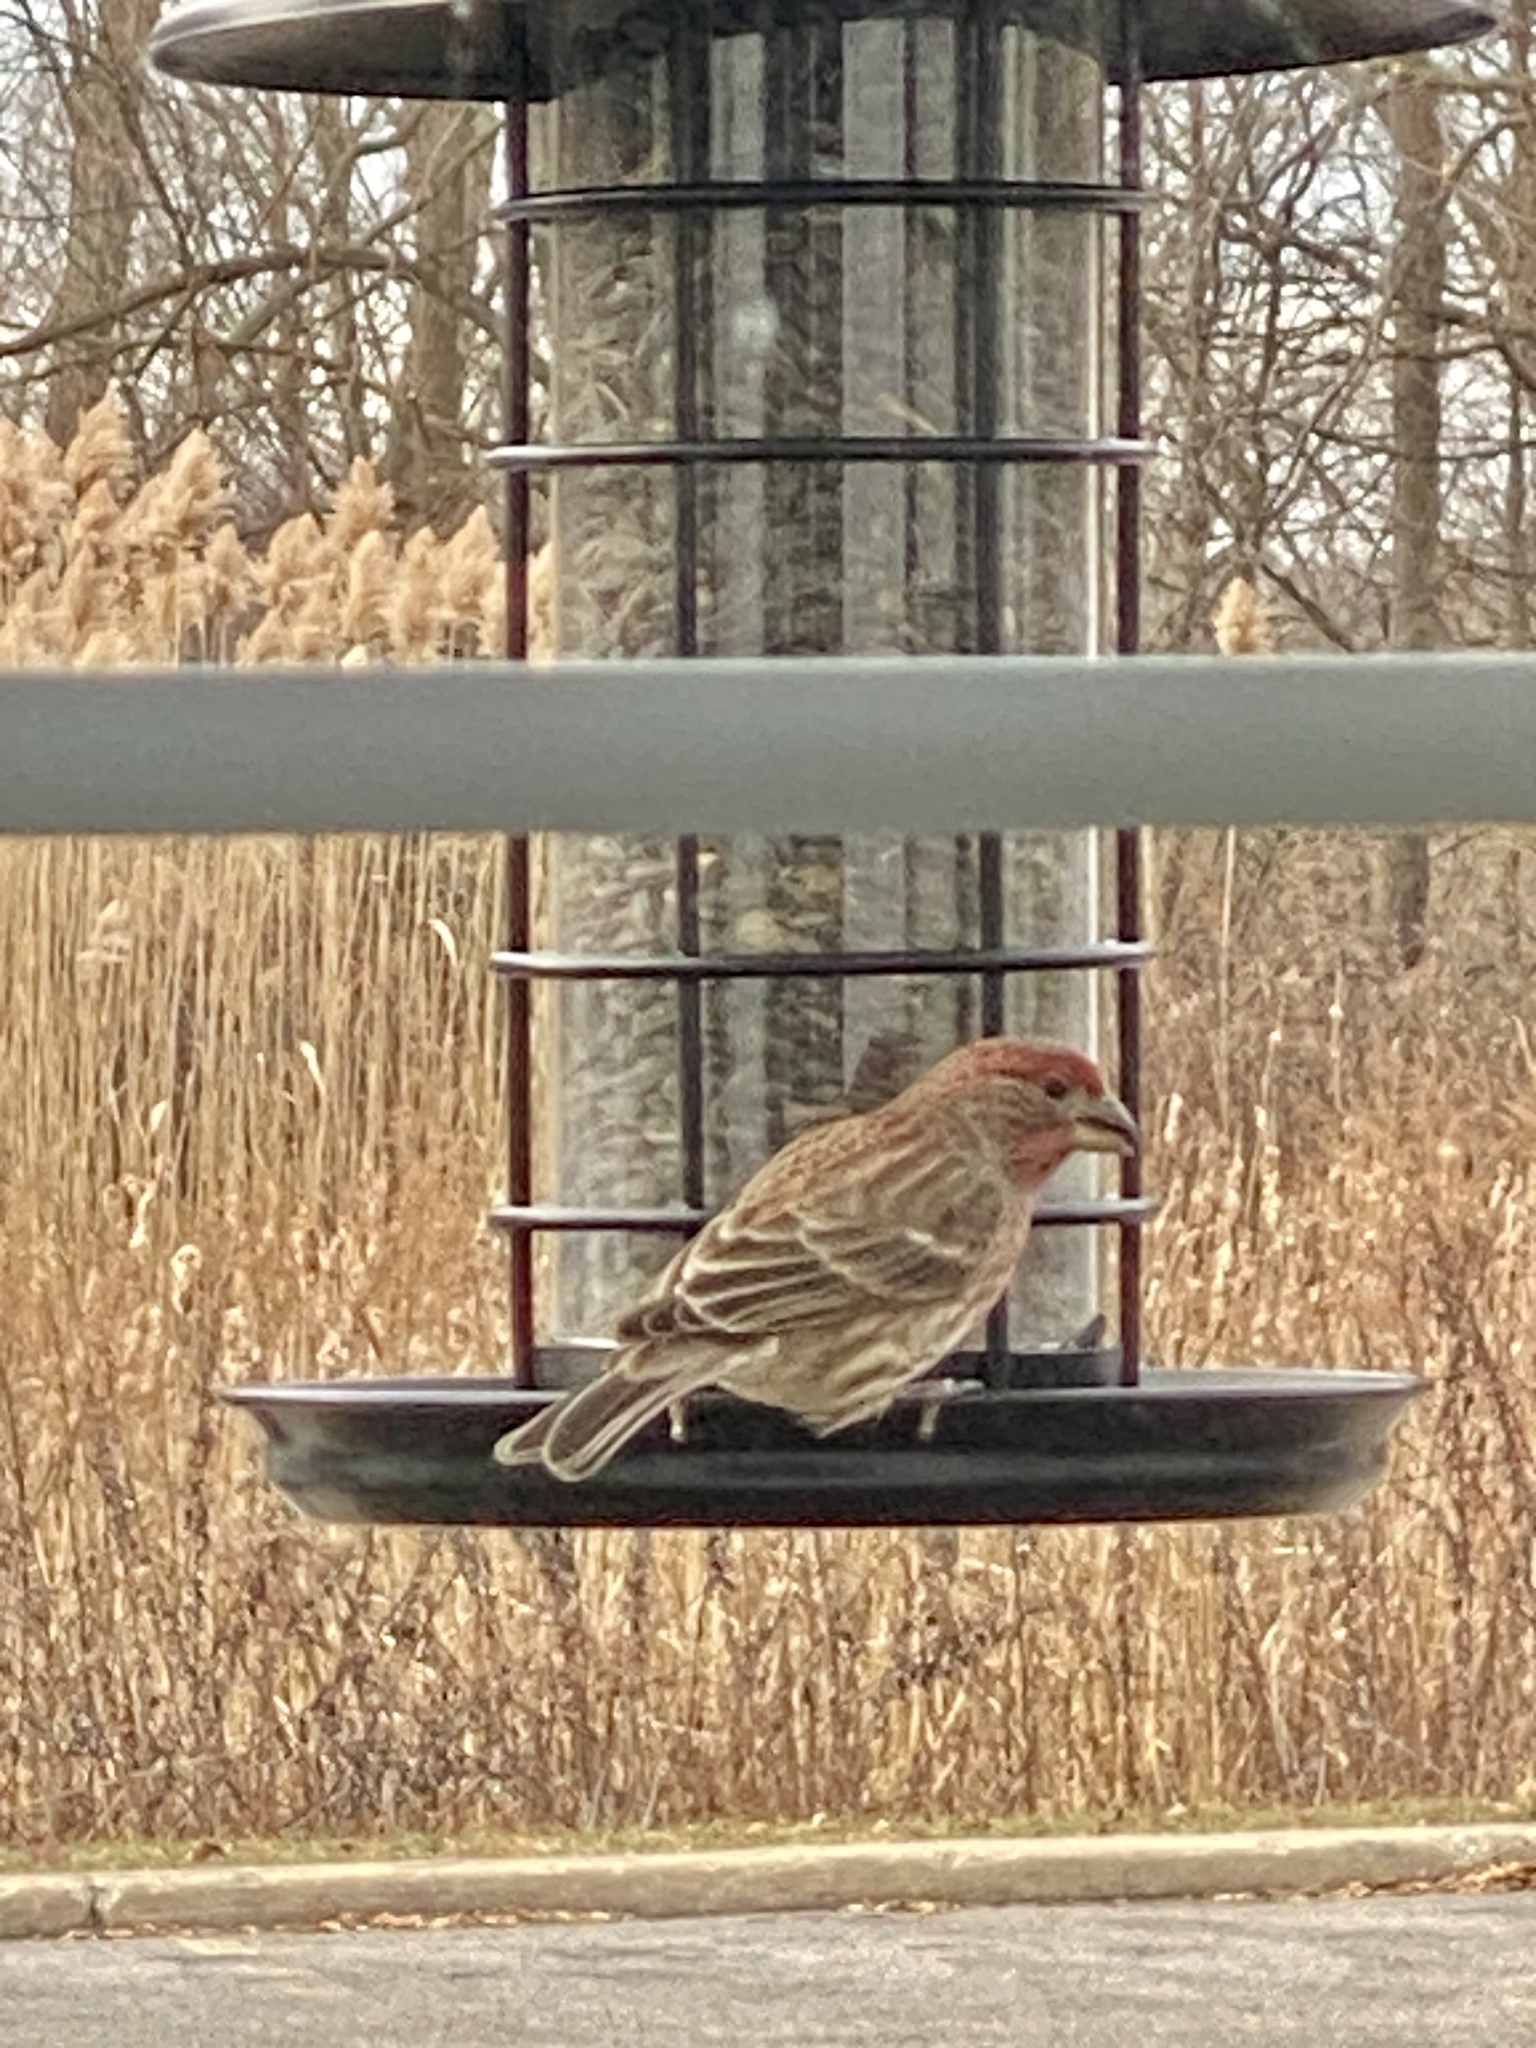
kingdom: Animalia
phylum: Chordata
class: Aves
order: Passeriformes
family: Fringillidae
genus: Haemorhous
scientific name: Haemorhous mexicanus
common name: House finch
